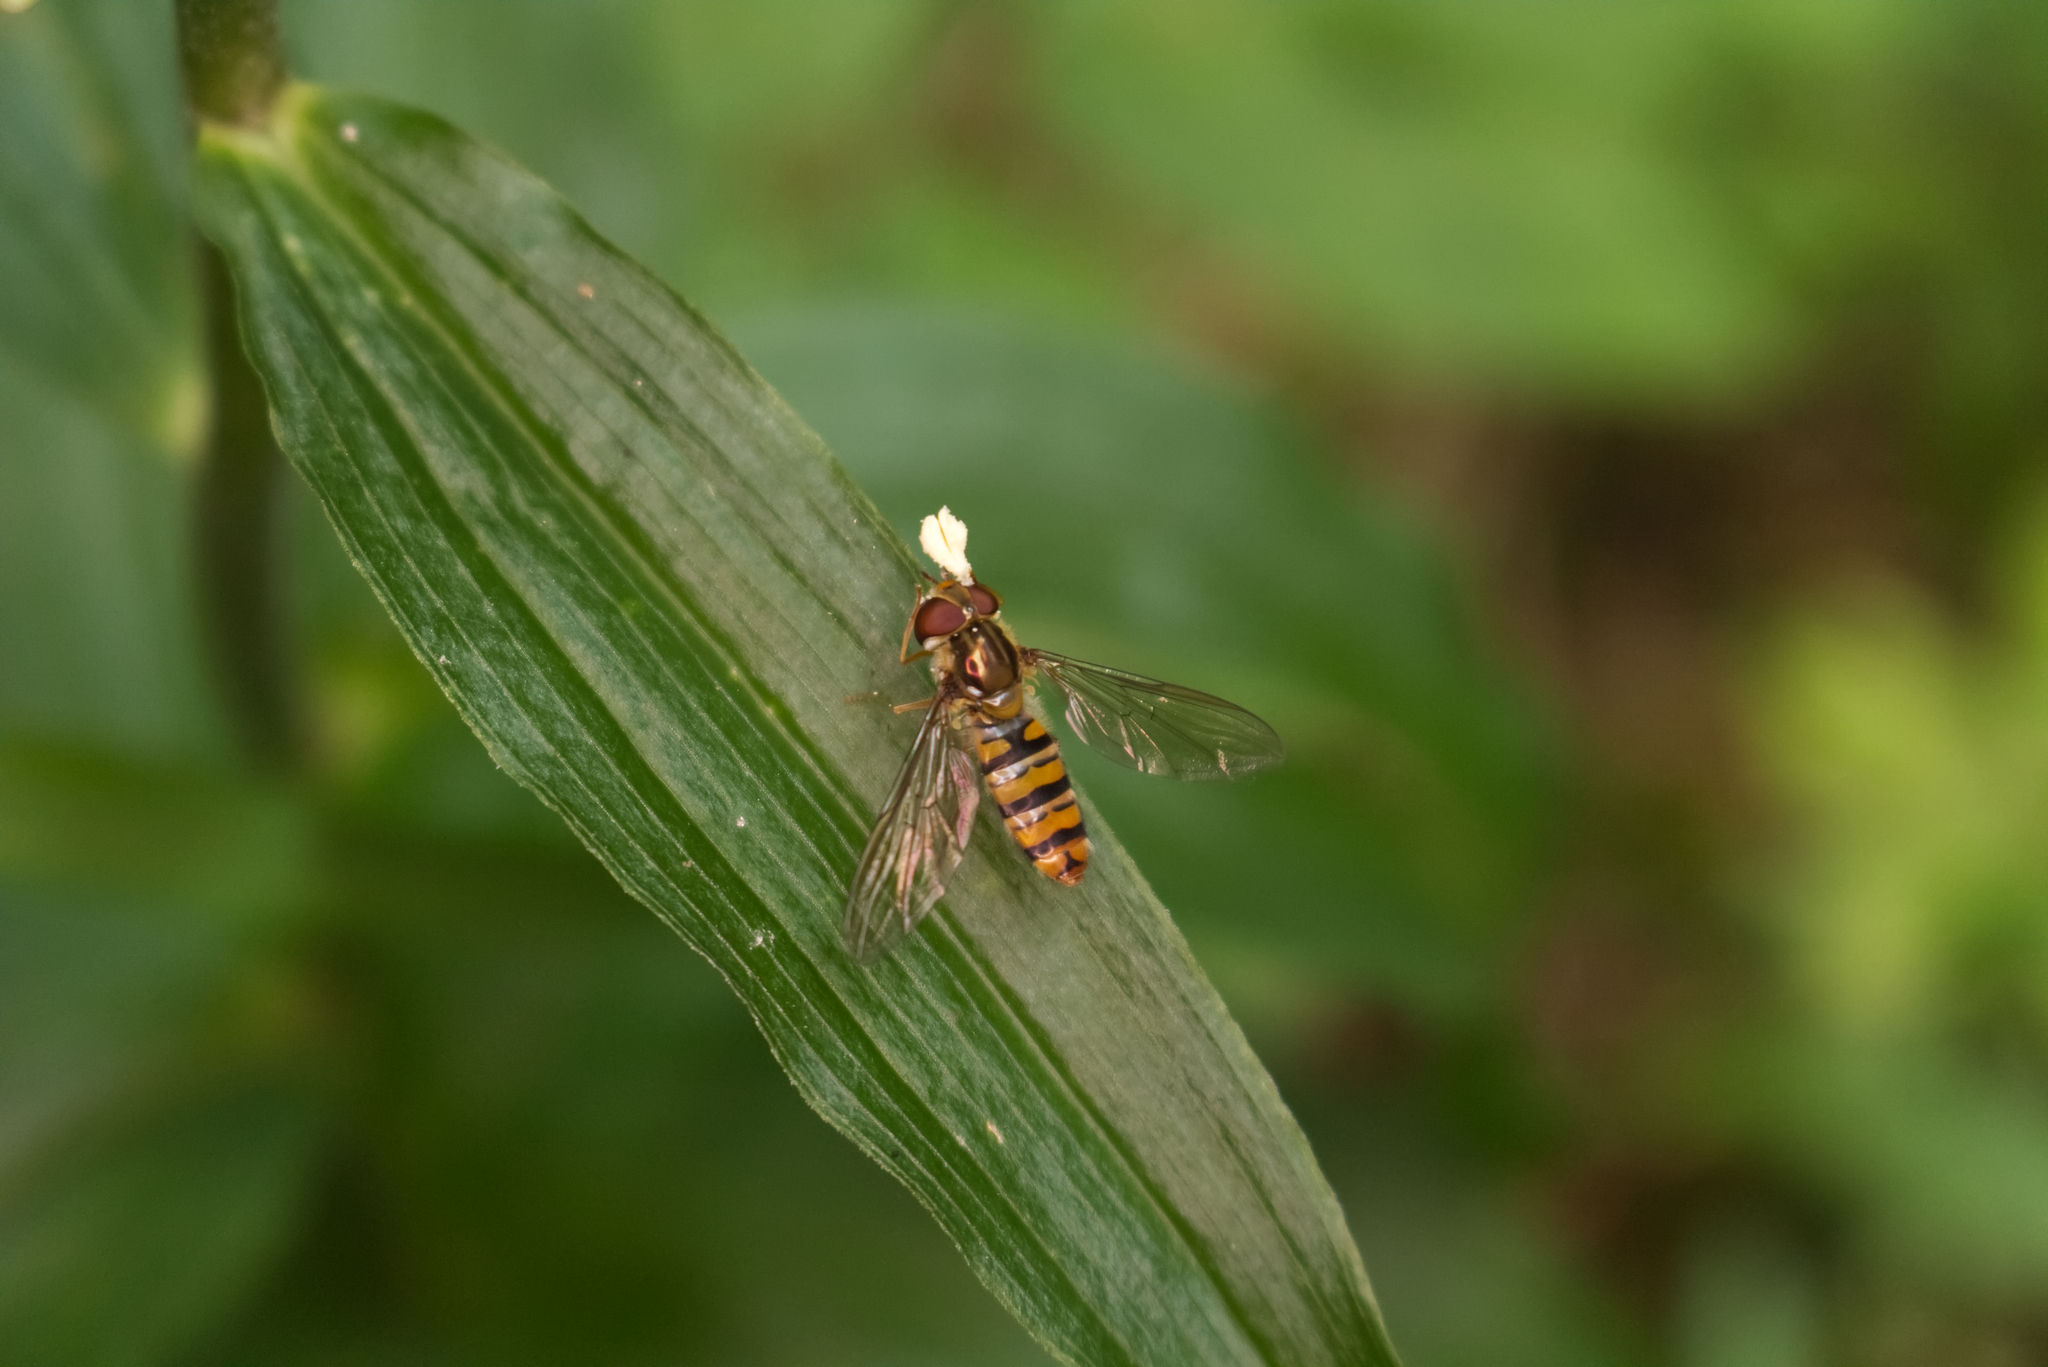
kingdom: Animalia
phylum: Arthropoda
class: Insecta
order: Diptera
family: Syrphidae
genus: Episyrphus
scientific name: Episyrphus balteatus
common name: Marmalade hoverfly
